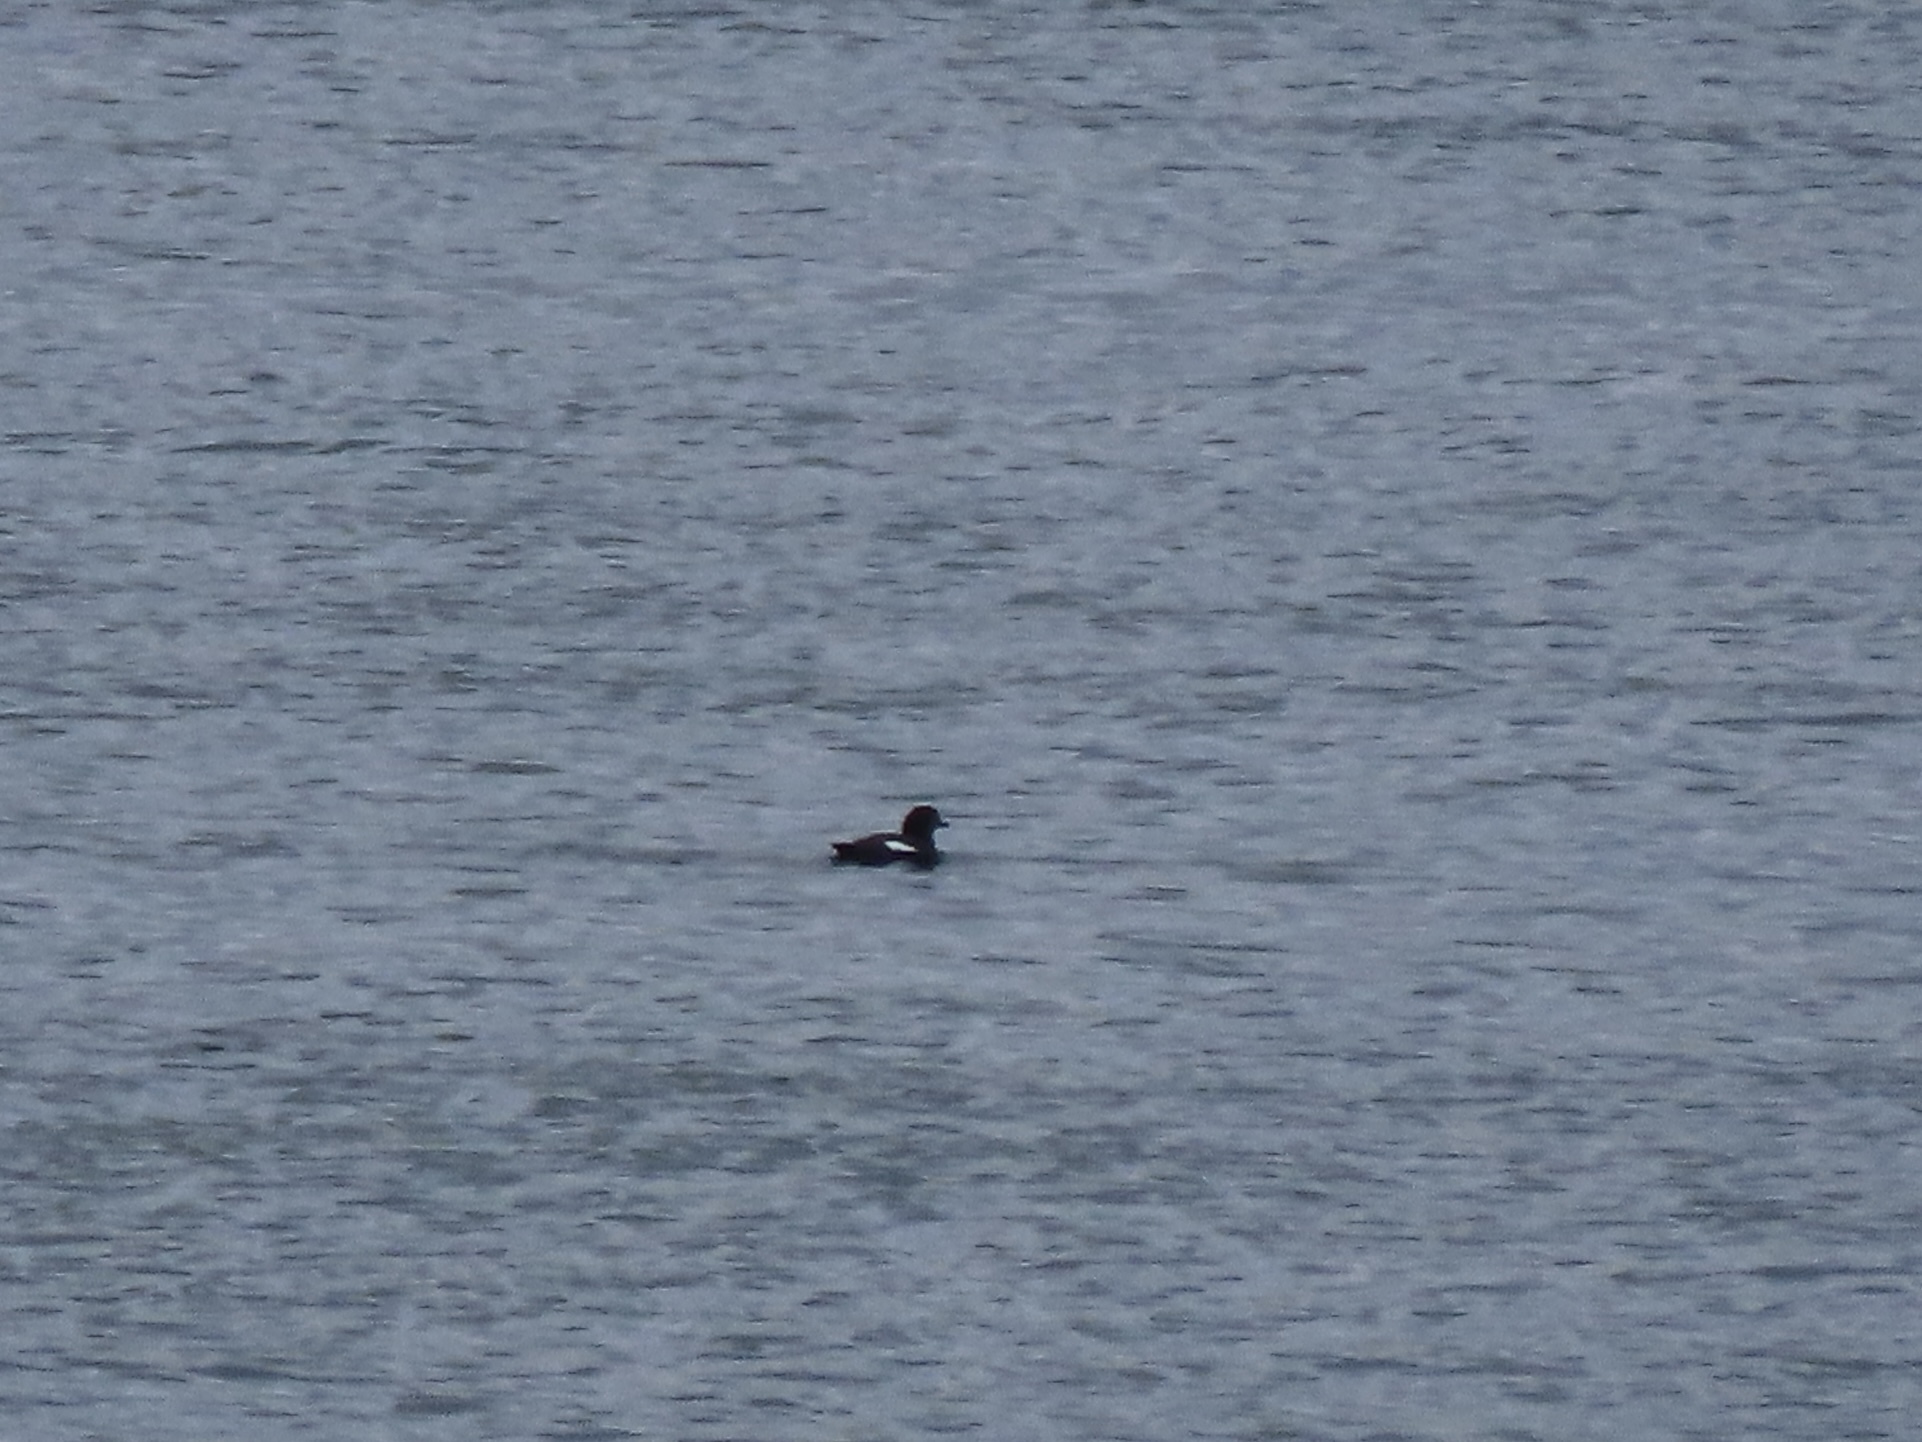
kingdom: Animalia
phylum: Chordata
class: Aves
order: Charadriiformes
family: Alcidae
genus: Cepphus
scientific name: Cepphus columba
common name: Pigeon guillemot
